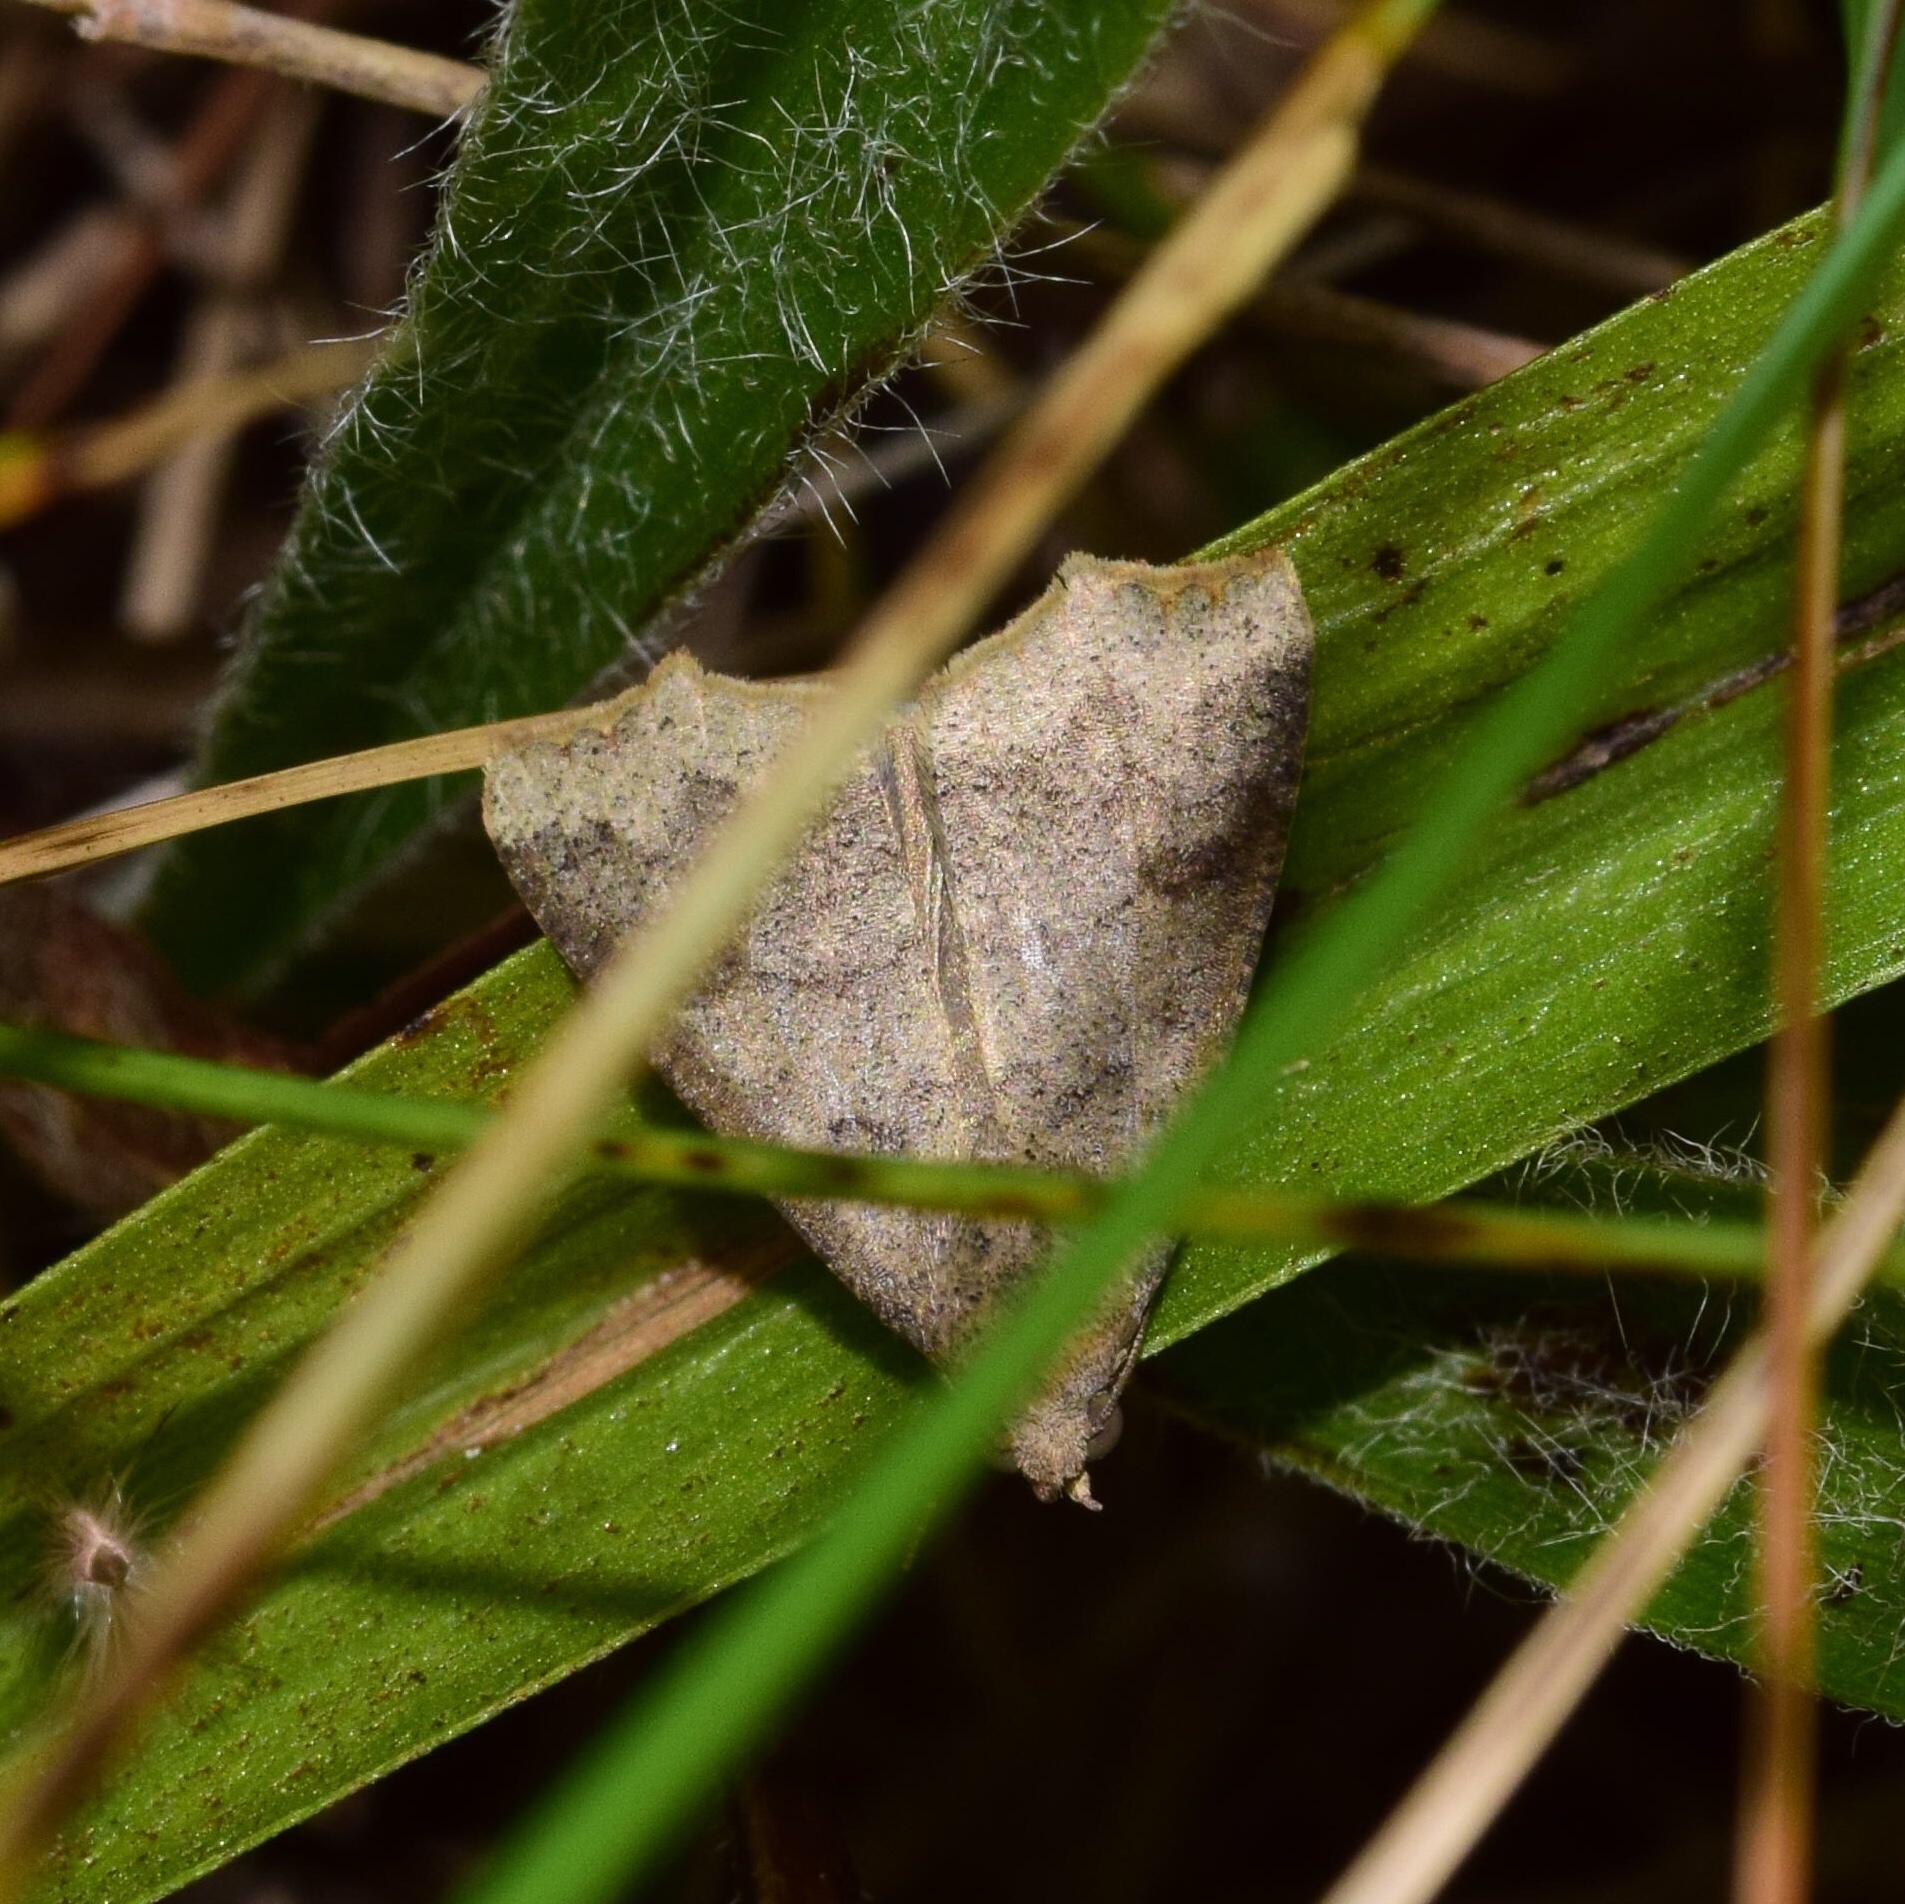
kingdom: Animalia
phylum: Arthropoda
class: Insecta
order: Lepidoptera
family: Erebidae
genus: Anomis
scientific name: Anomis sabulifera
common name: Angled gem
